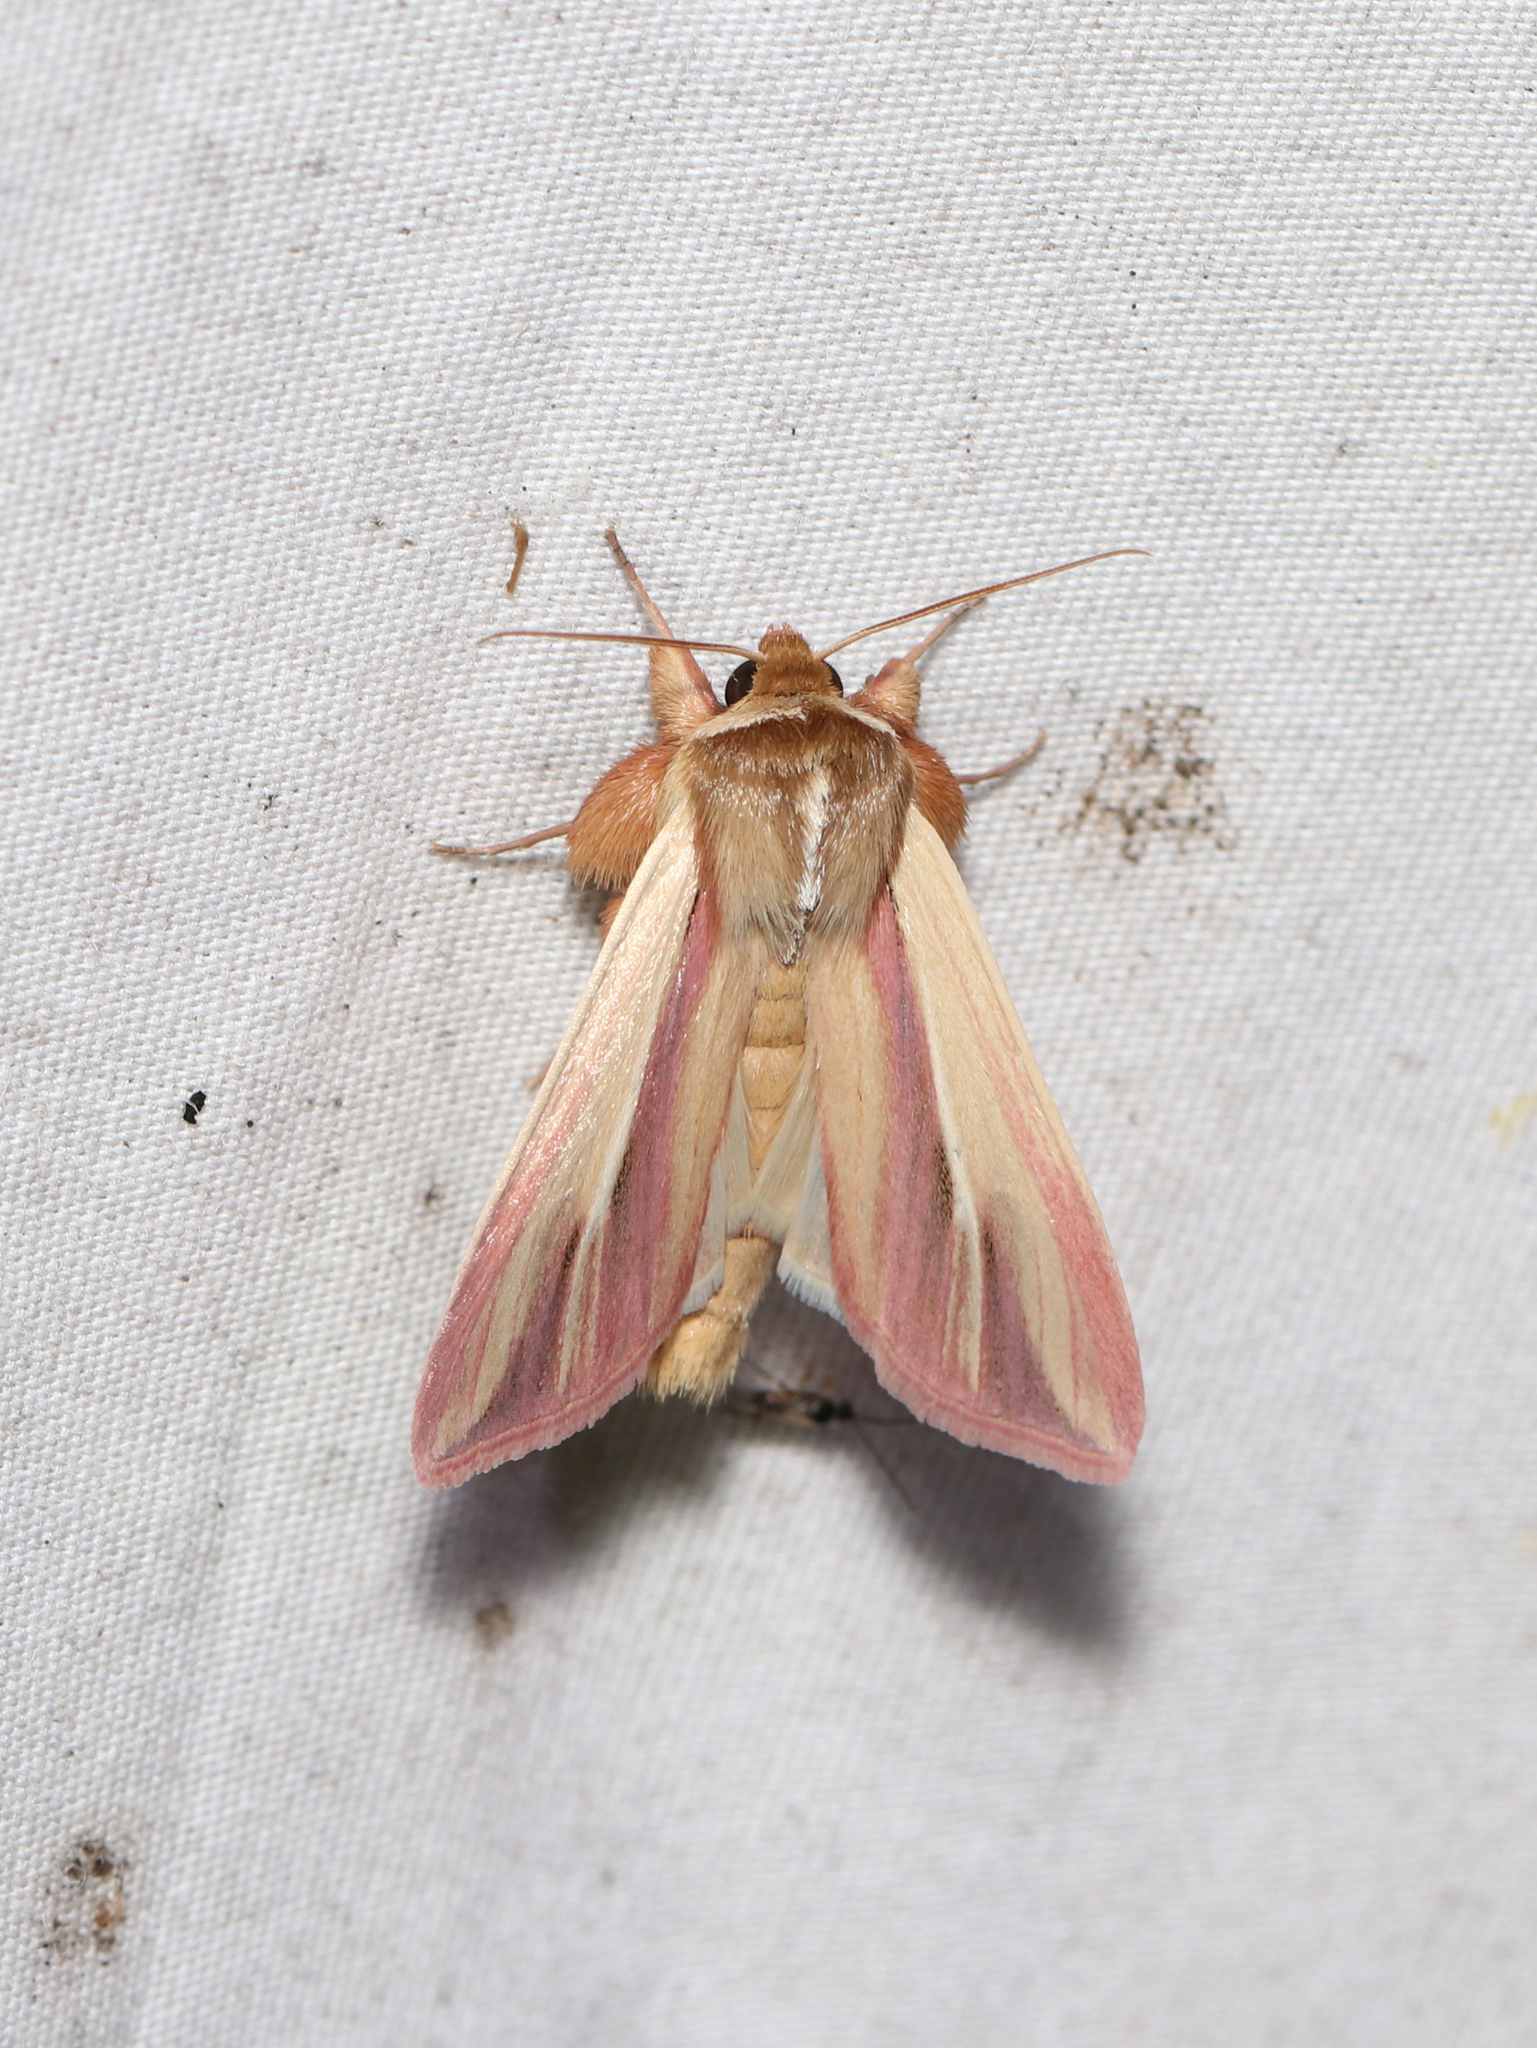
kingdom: Animalia
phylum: Arthropoda
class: Insecta
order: Lepidoptera
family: Noctuidae
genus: Dargida
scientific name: Dargida rubripennis
